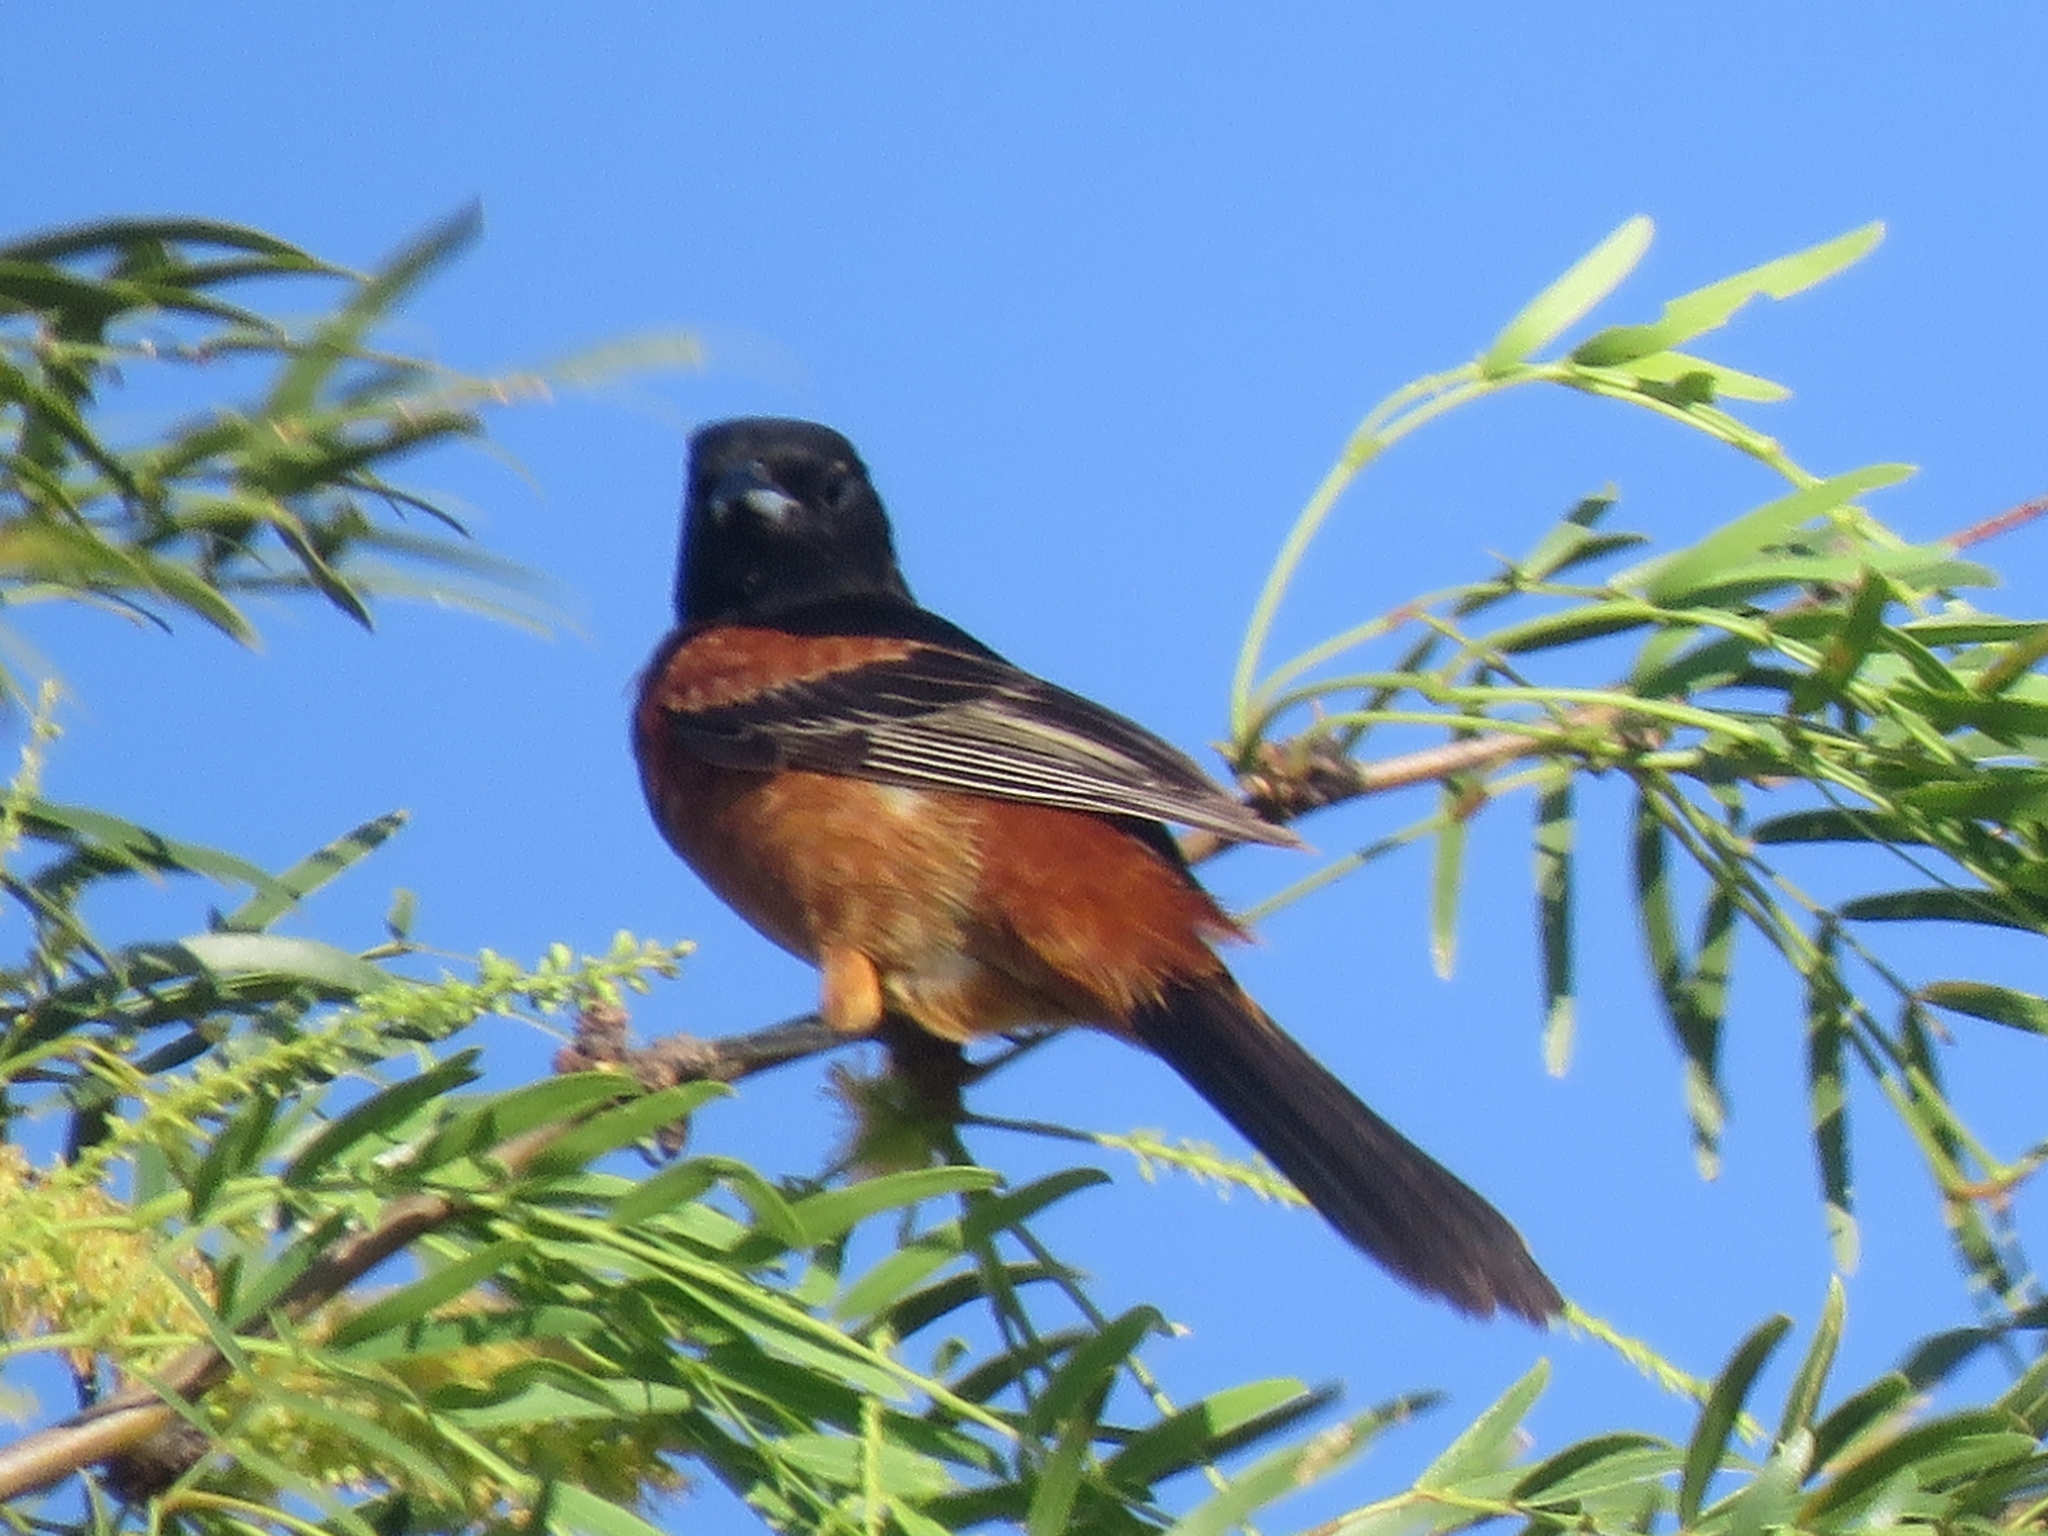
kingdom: Animalia
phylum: Chordata
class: Aves
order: Passeriformes
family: Icteridae
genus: Icterus
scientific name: Icterus spurius
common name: Orchard oriole
